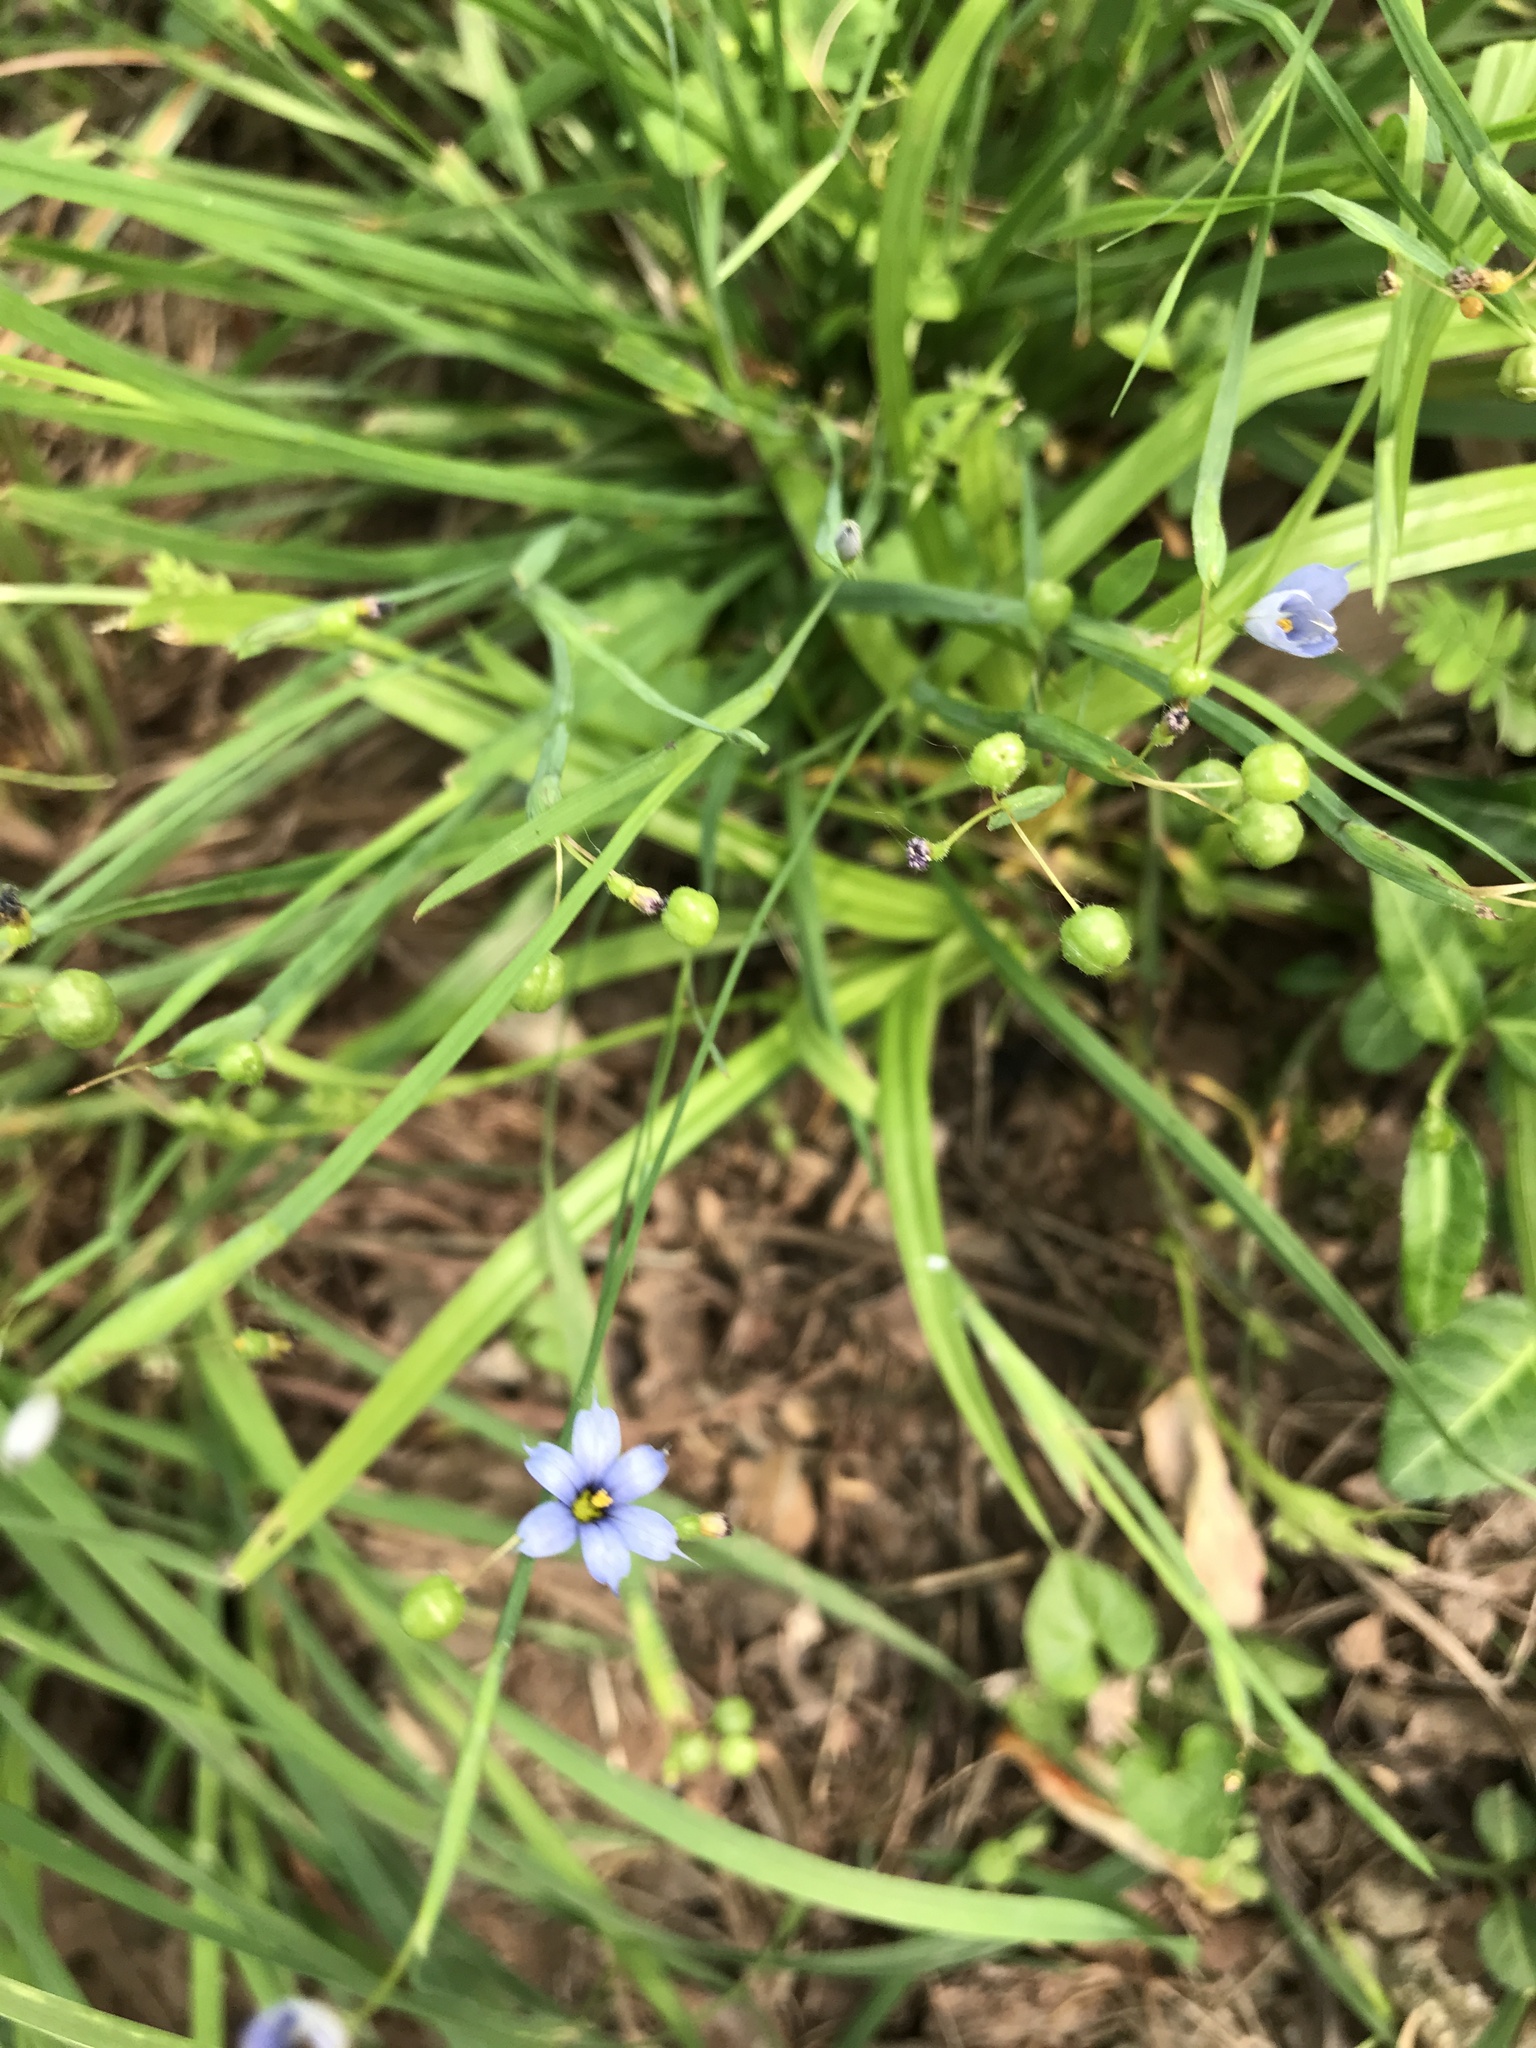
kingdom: Plantae
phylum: Tracheophyta
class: Liliopsida
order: Asparagales
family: Iridaceae
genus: Sisyrinchium
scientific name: Sisyrinchium angustifolium
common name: Narrow-leaf blue-eyed-grass
